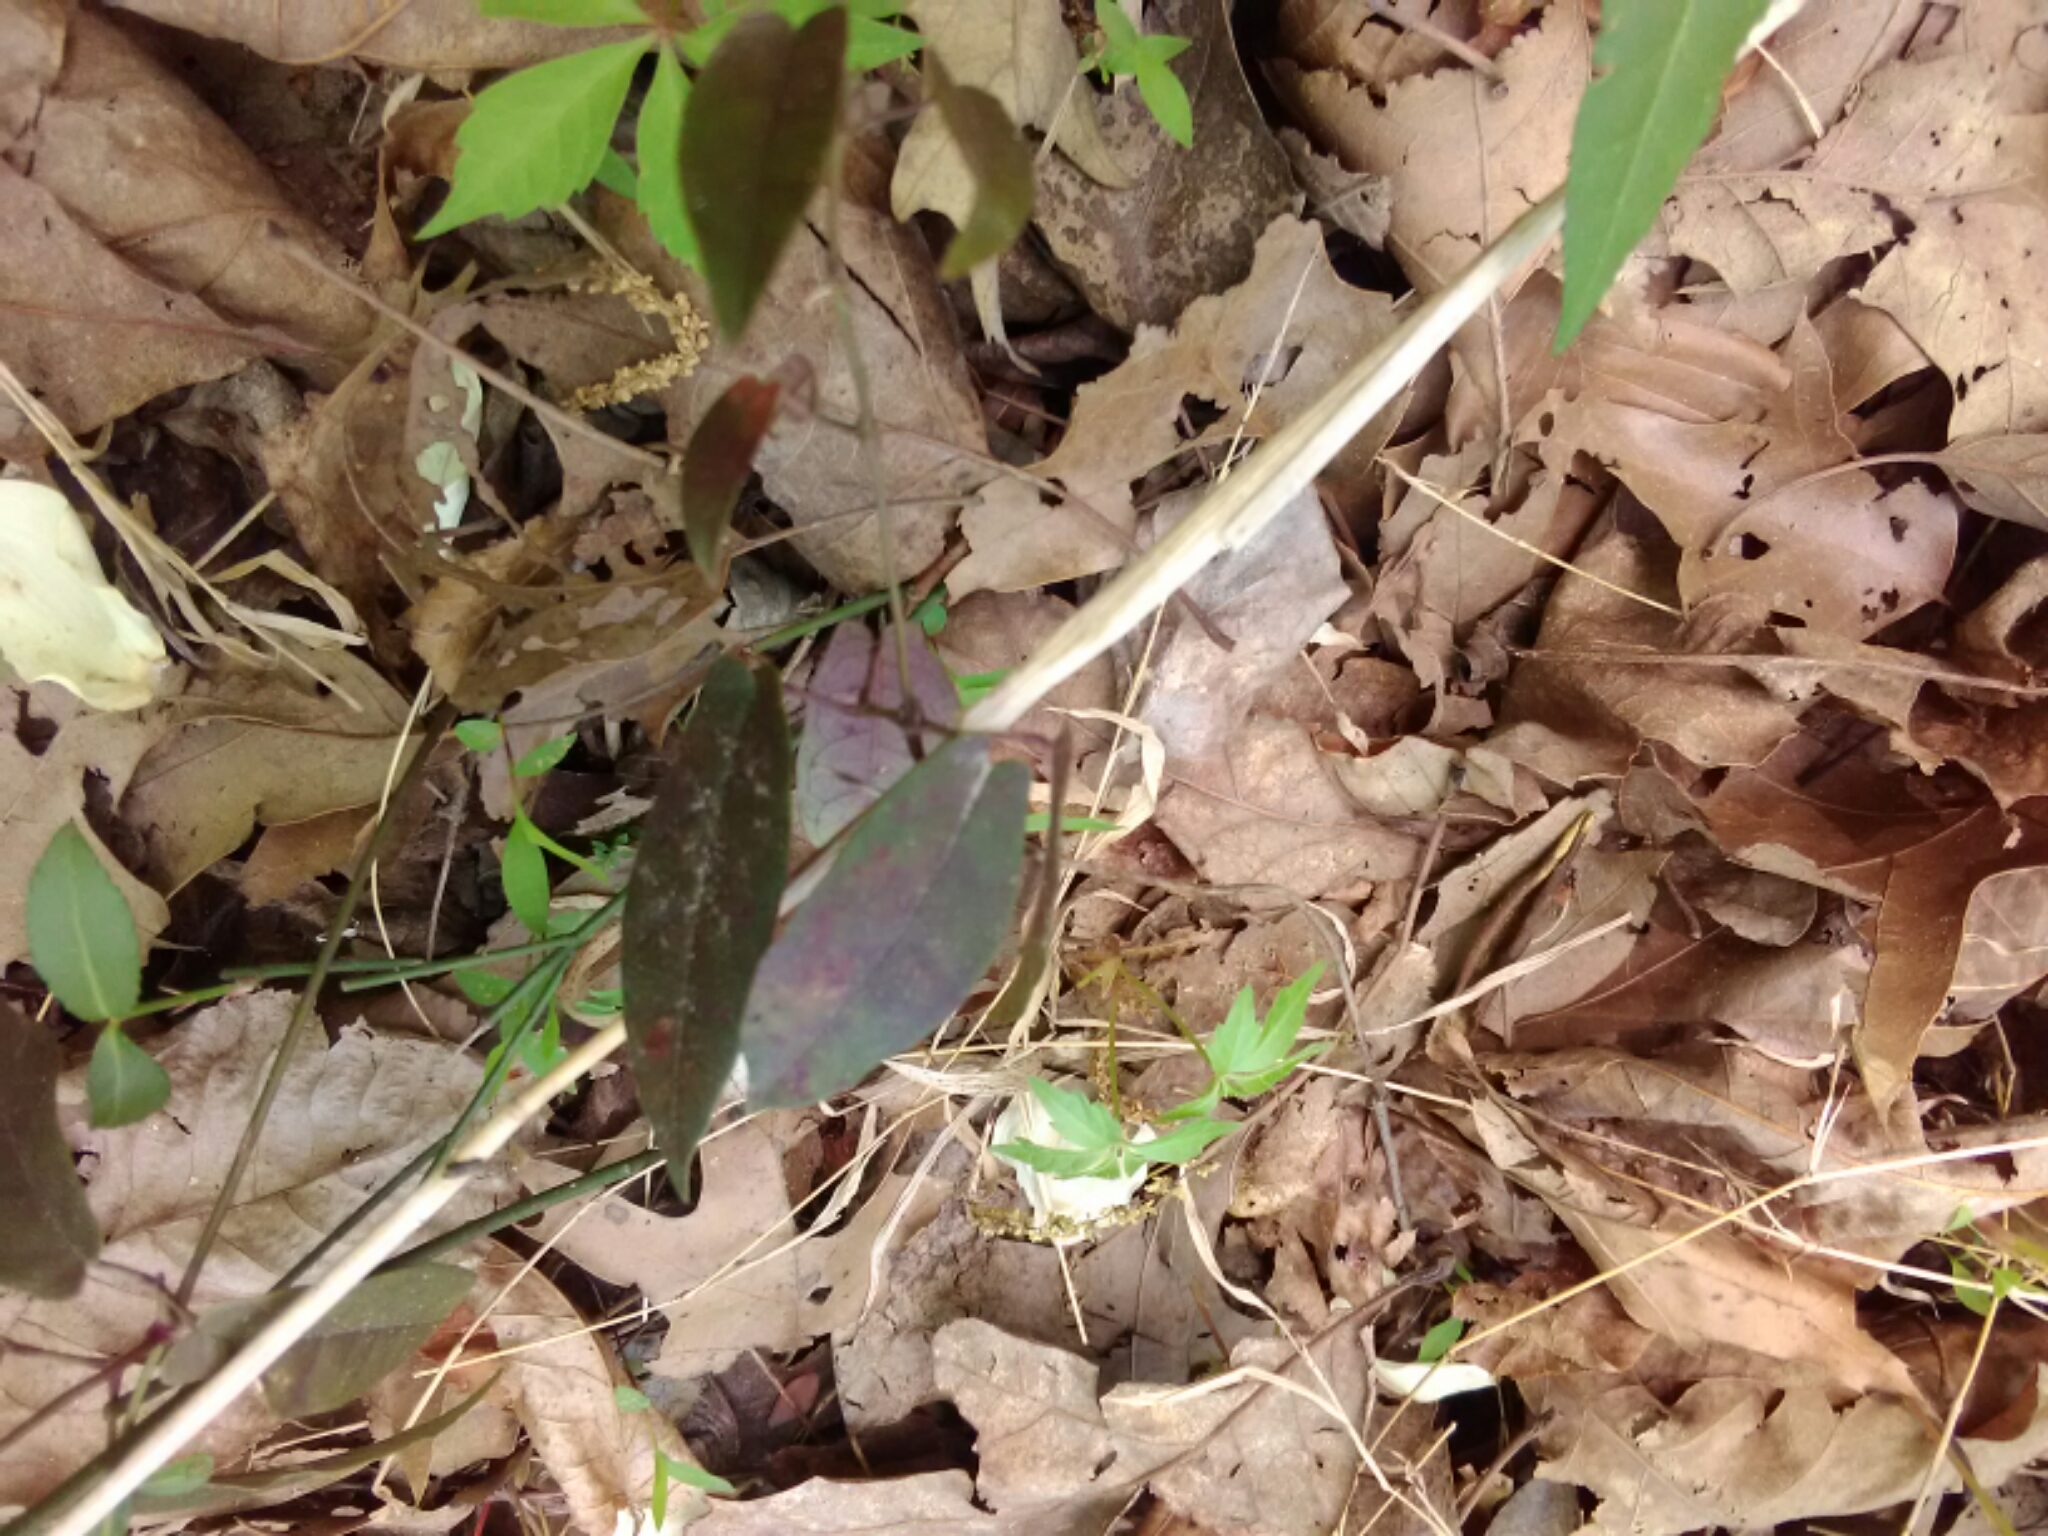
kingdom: Plantae
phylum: Tracheophyta
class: Magnoliopsida
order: Lamiales
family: Bignoniaceae
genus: Bignonia
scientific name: Bignonia capreolata
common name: Crossvine
